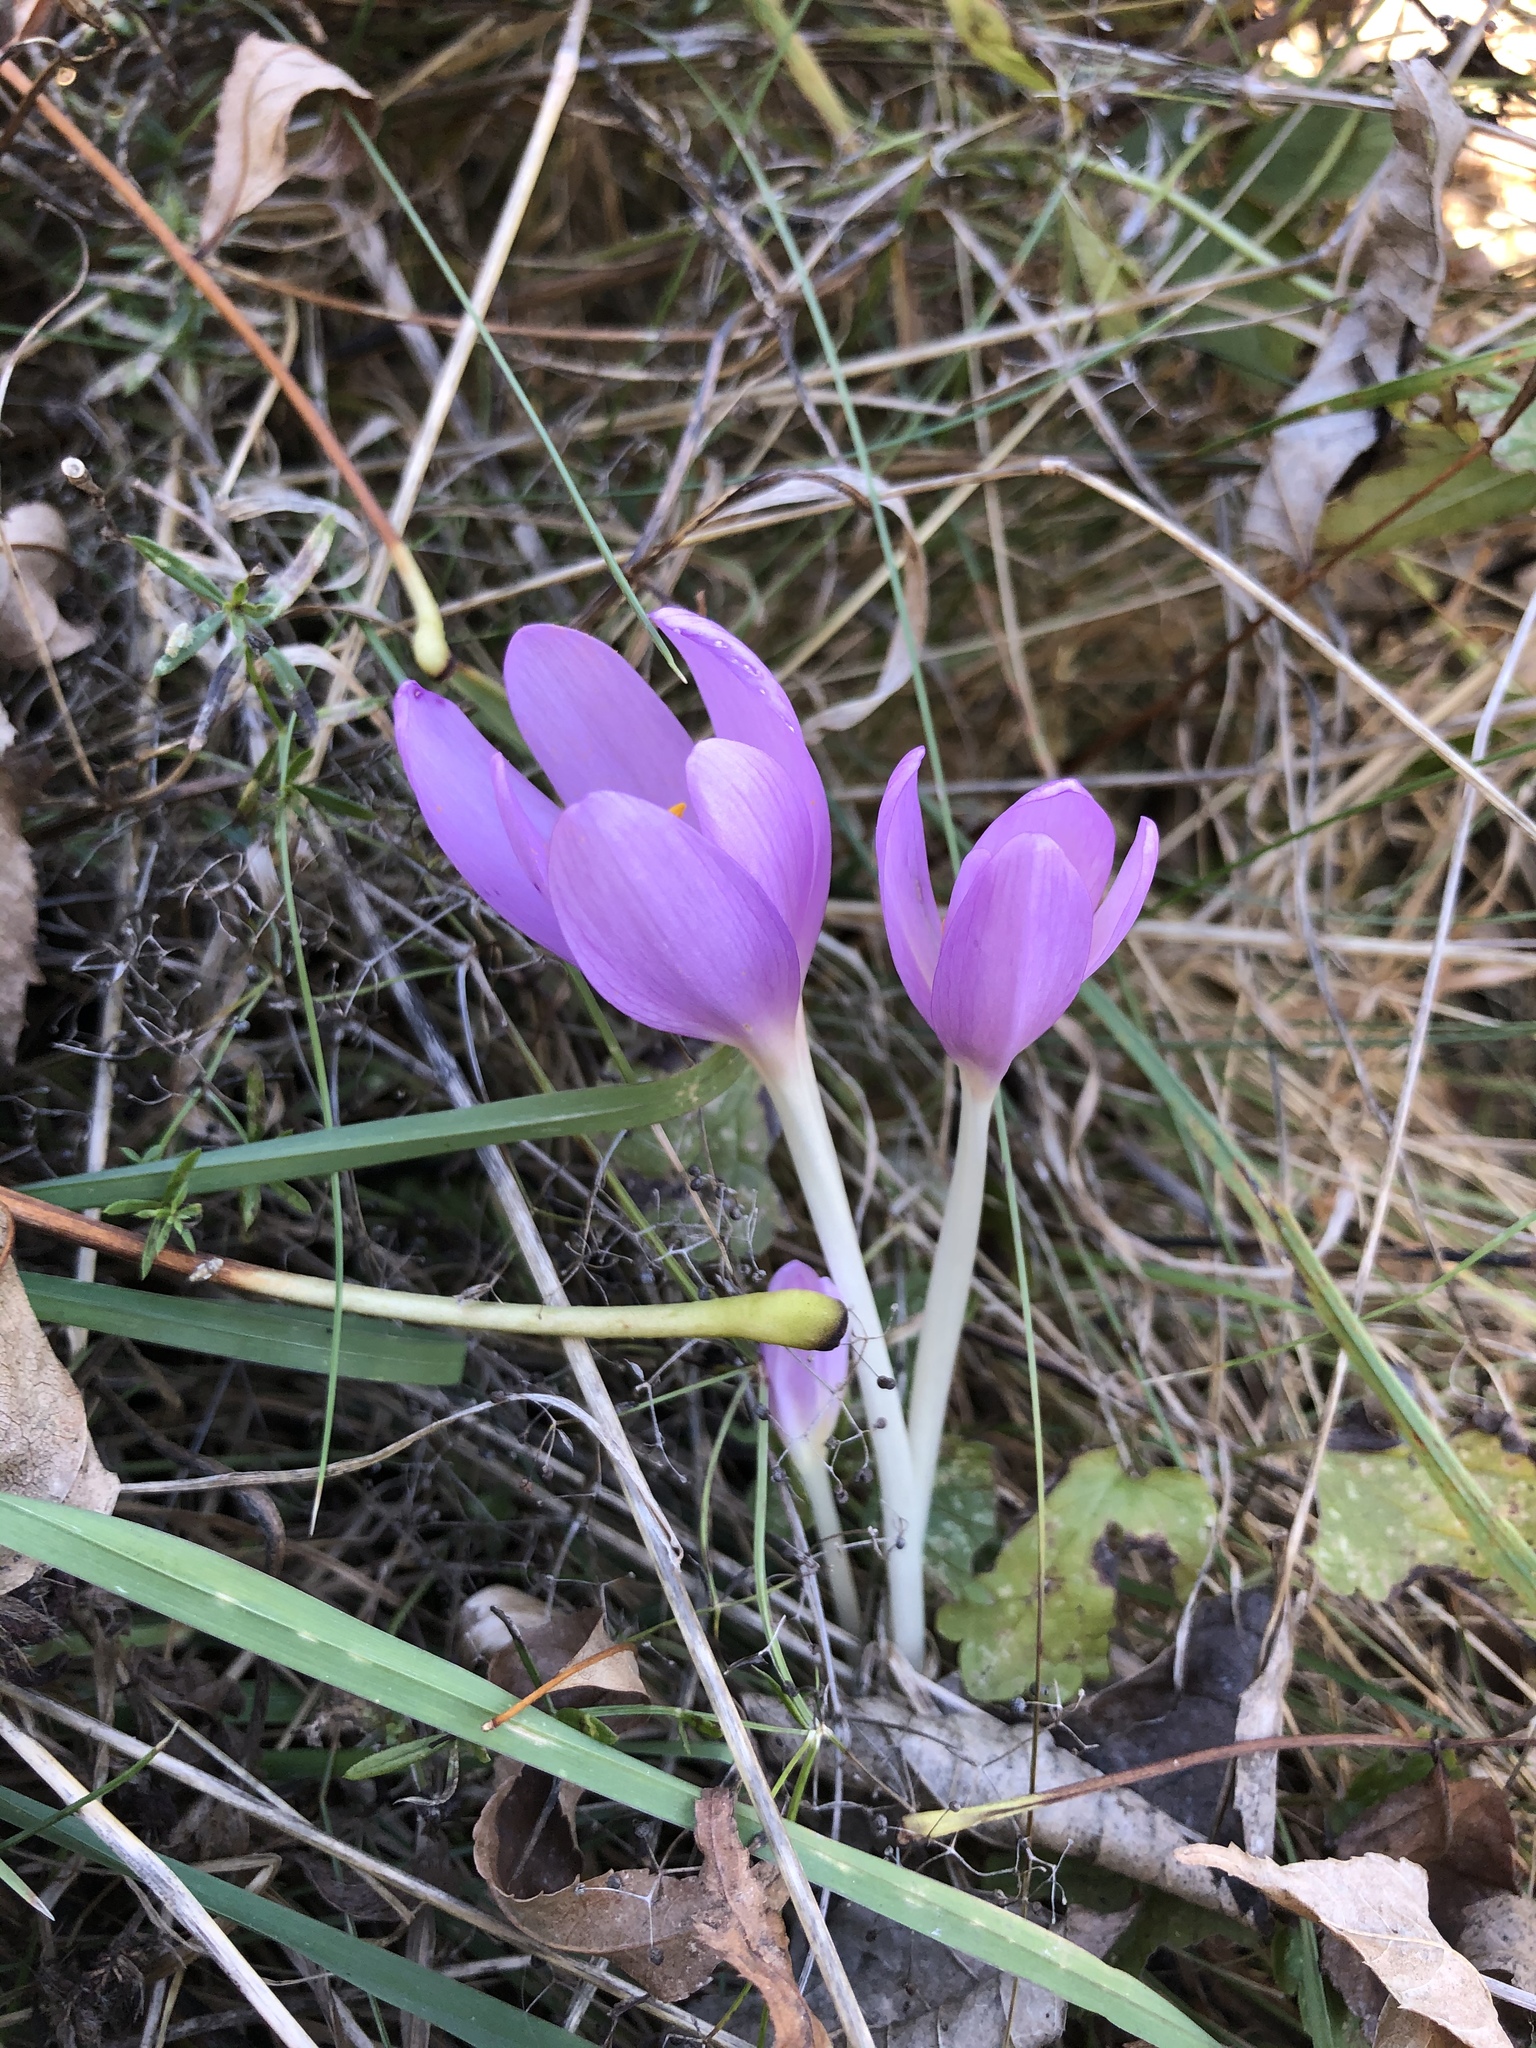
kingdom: Plantae
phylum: Tracheophyta
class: Liliopsida
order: Liliales
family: Colchicaceae
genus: Colchicum
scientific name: Colchicum autumnale
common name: Autumn crocus
